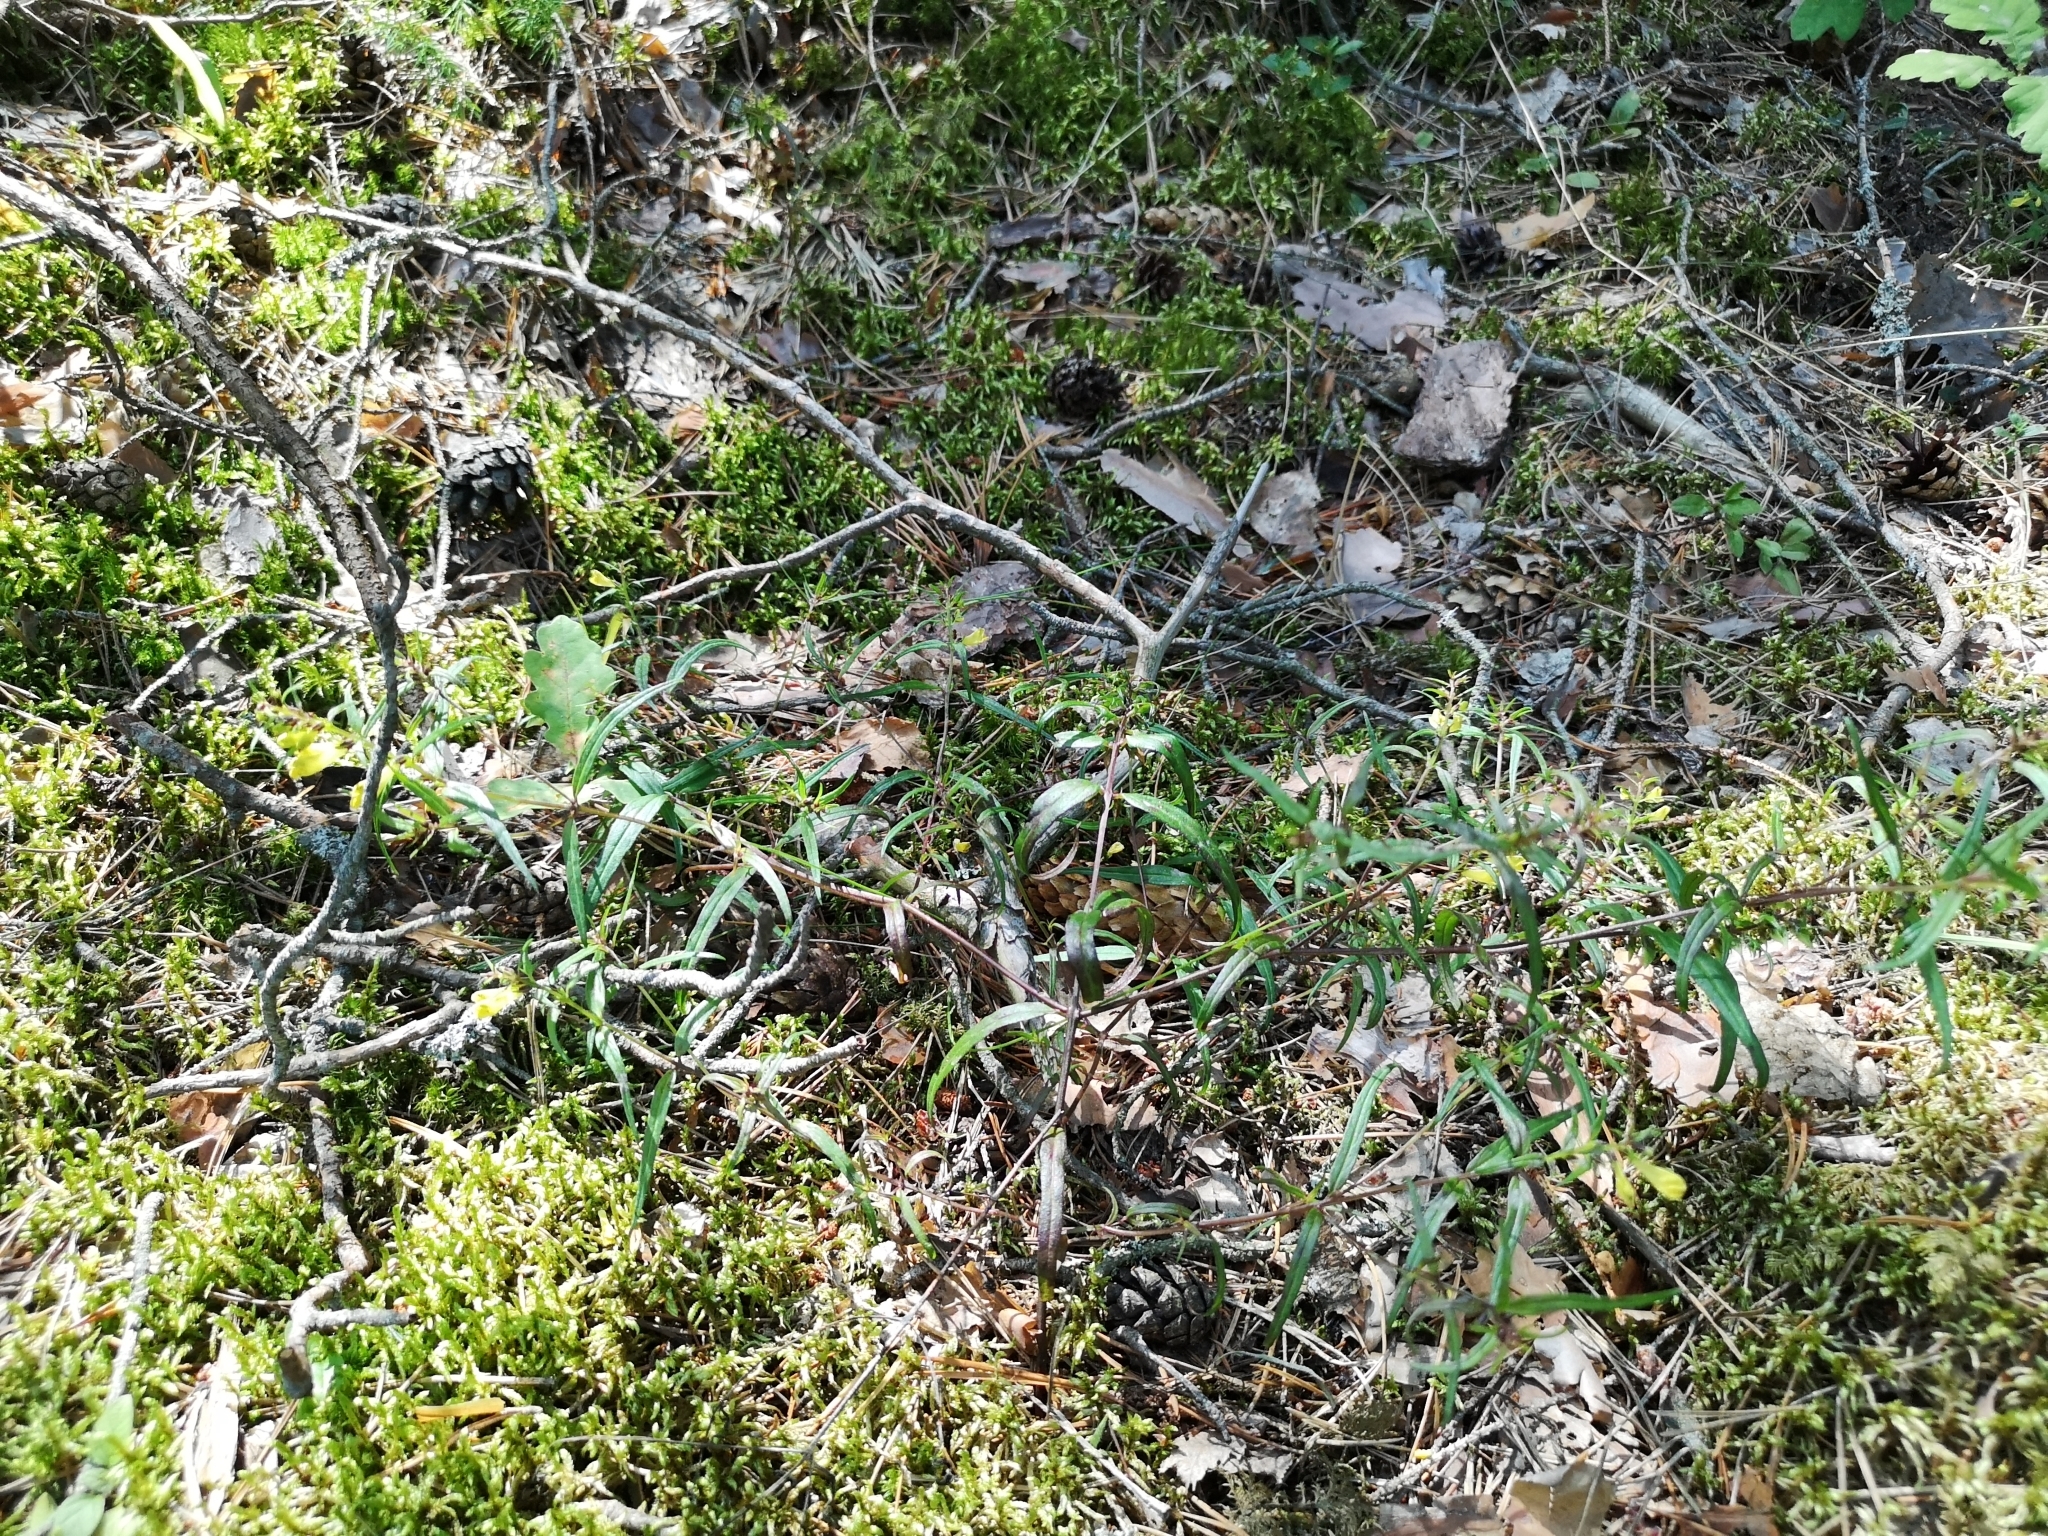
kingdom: Plantae
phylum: Tracheophyta
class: Magnoliopsida
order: Lamiales
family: Orobanchaceae
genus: Melampyrum
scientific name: Melampyrum pratense
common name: Common cow-wheat
